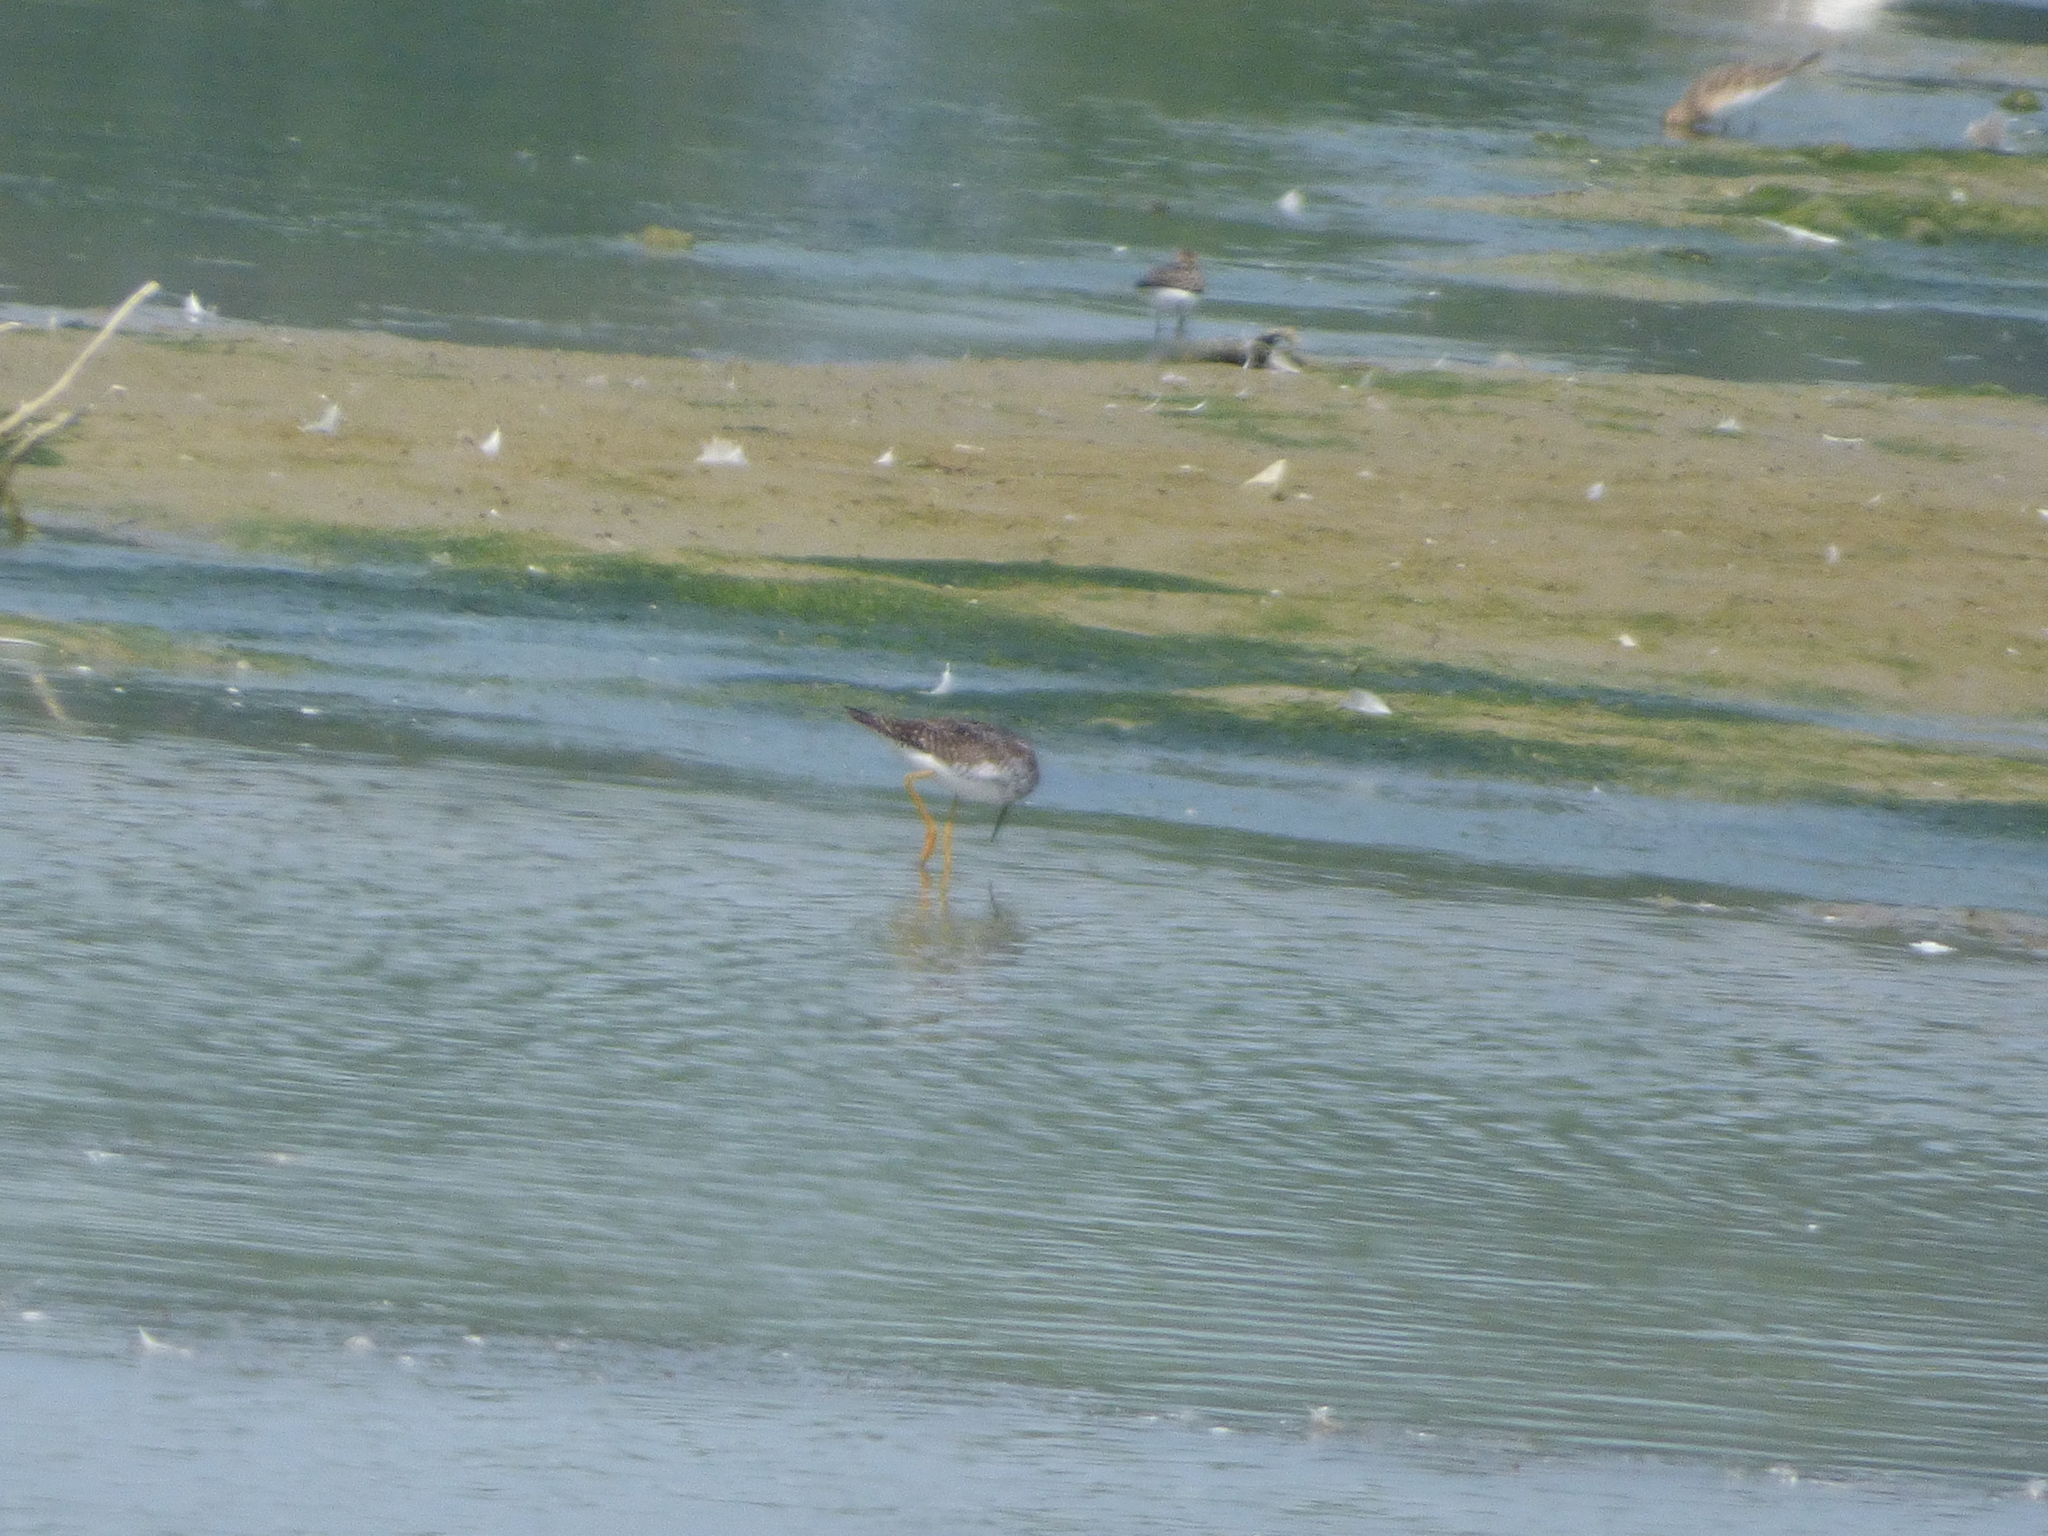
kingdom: Animalia
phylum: Chordata
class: Aves
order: Charadriiformes
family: Scolopacidae
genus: Tringa
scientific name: Tringa flavipes
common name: Lesser yellowlegs
